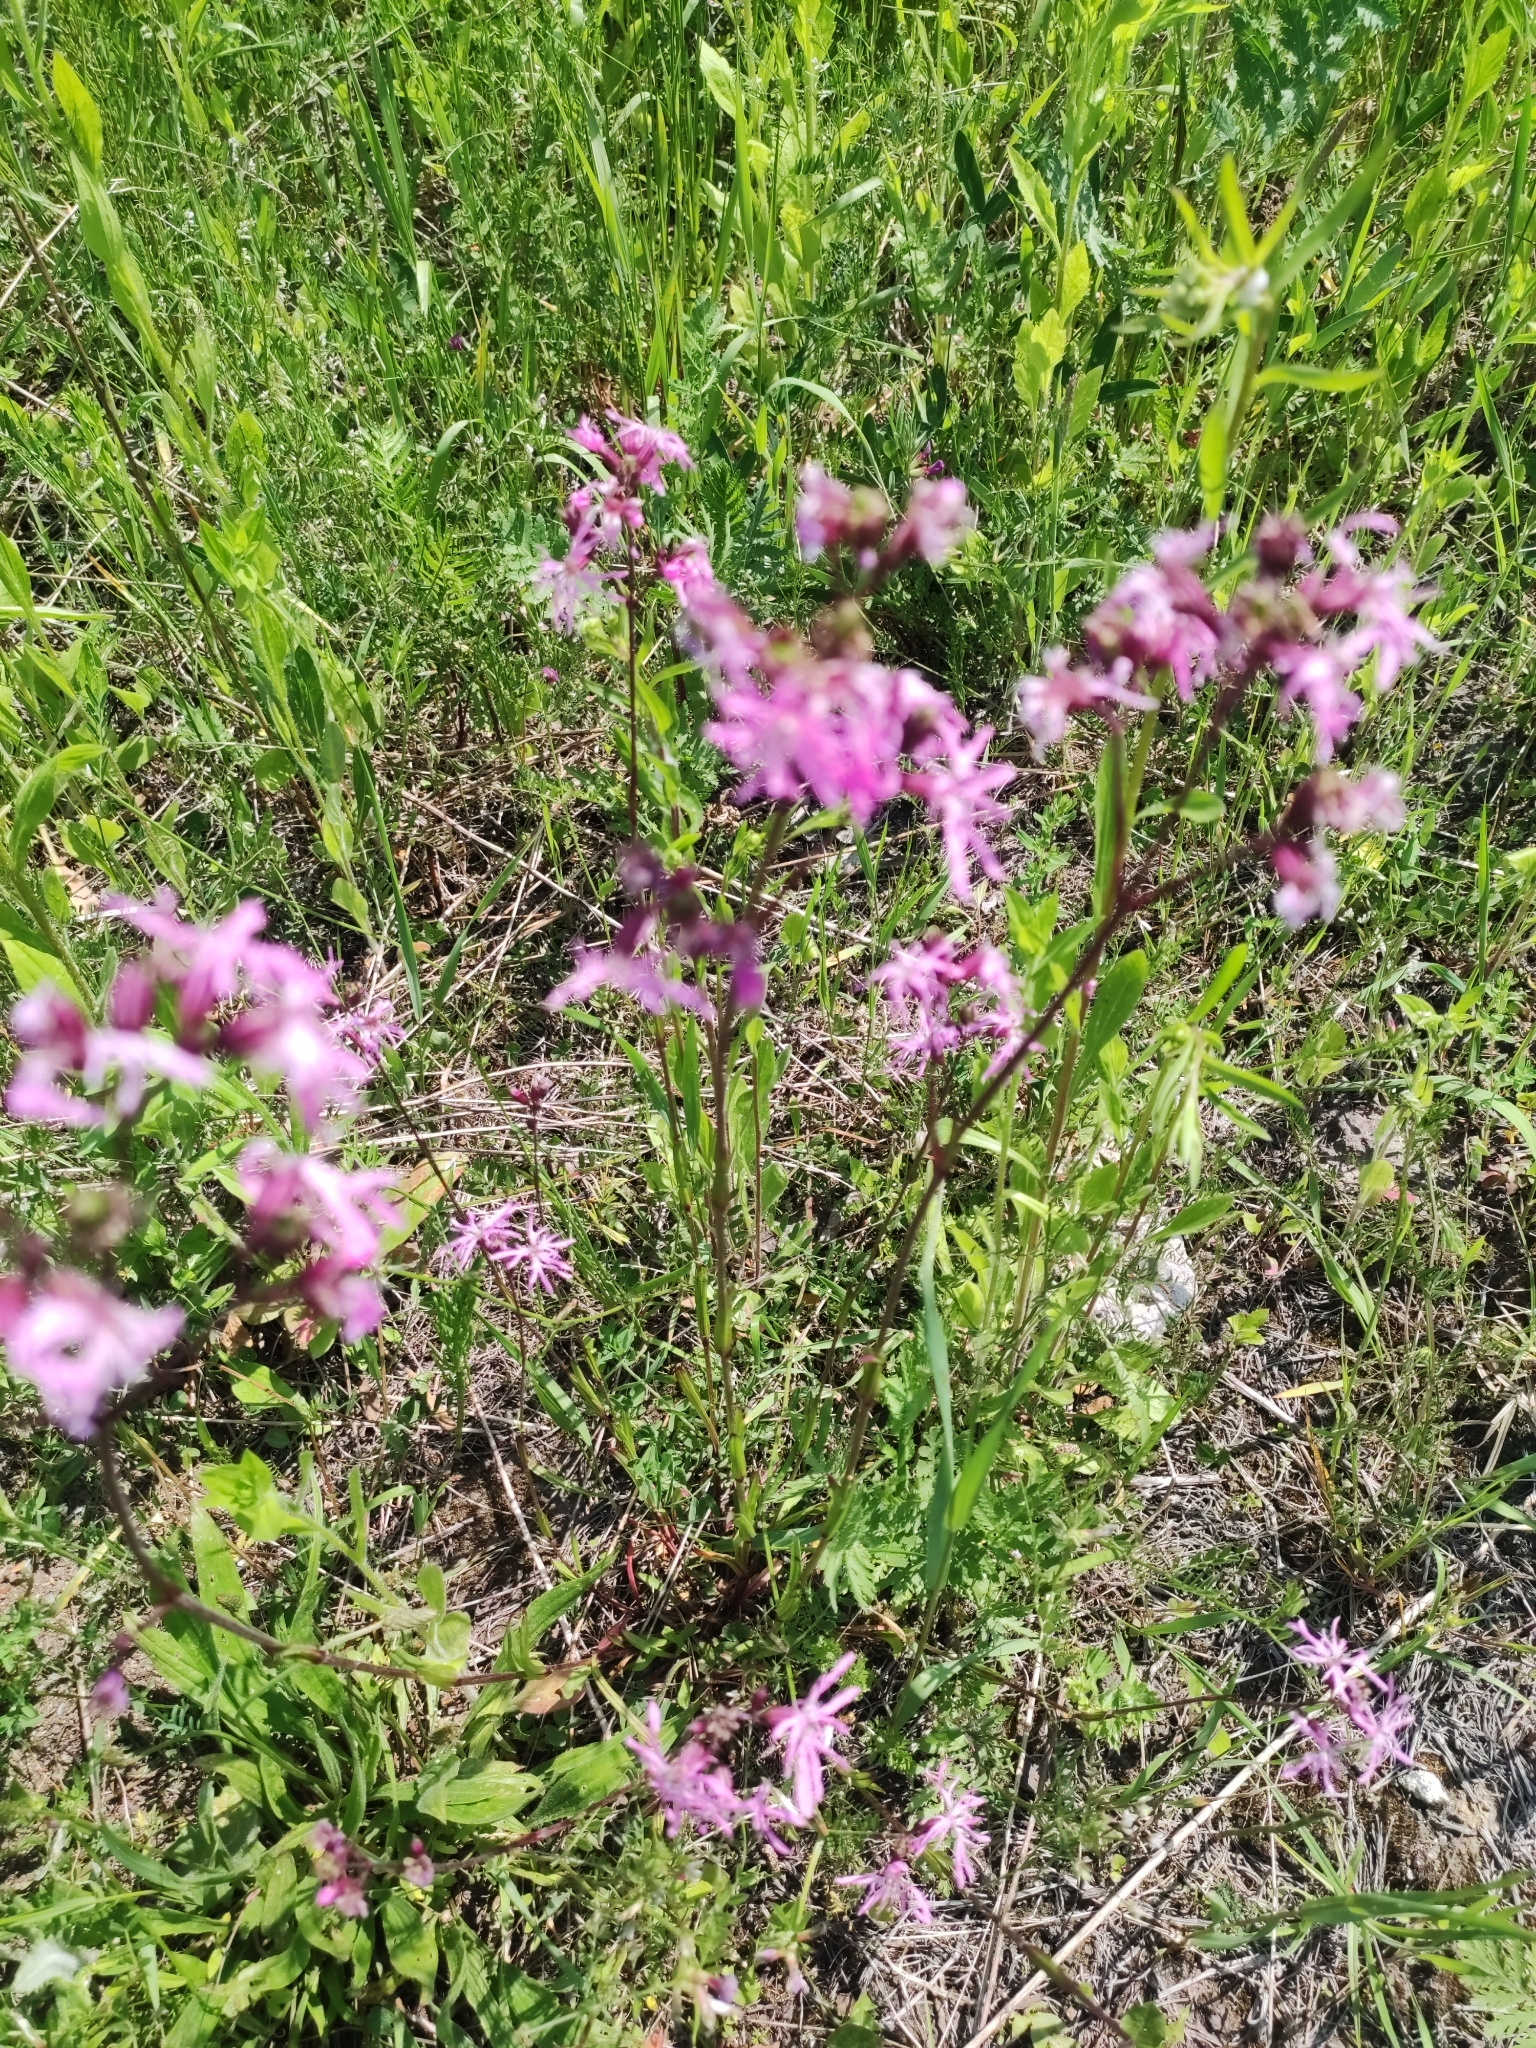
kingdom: Plantae
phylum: Tracheophyta
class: Magnoliopsida
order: Caryophyllales
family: Caryophyllaceae
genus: Silene
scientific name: Silene flos-cuculi
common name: Ragged-robin
